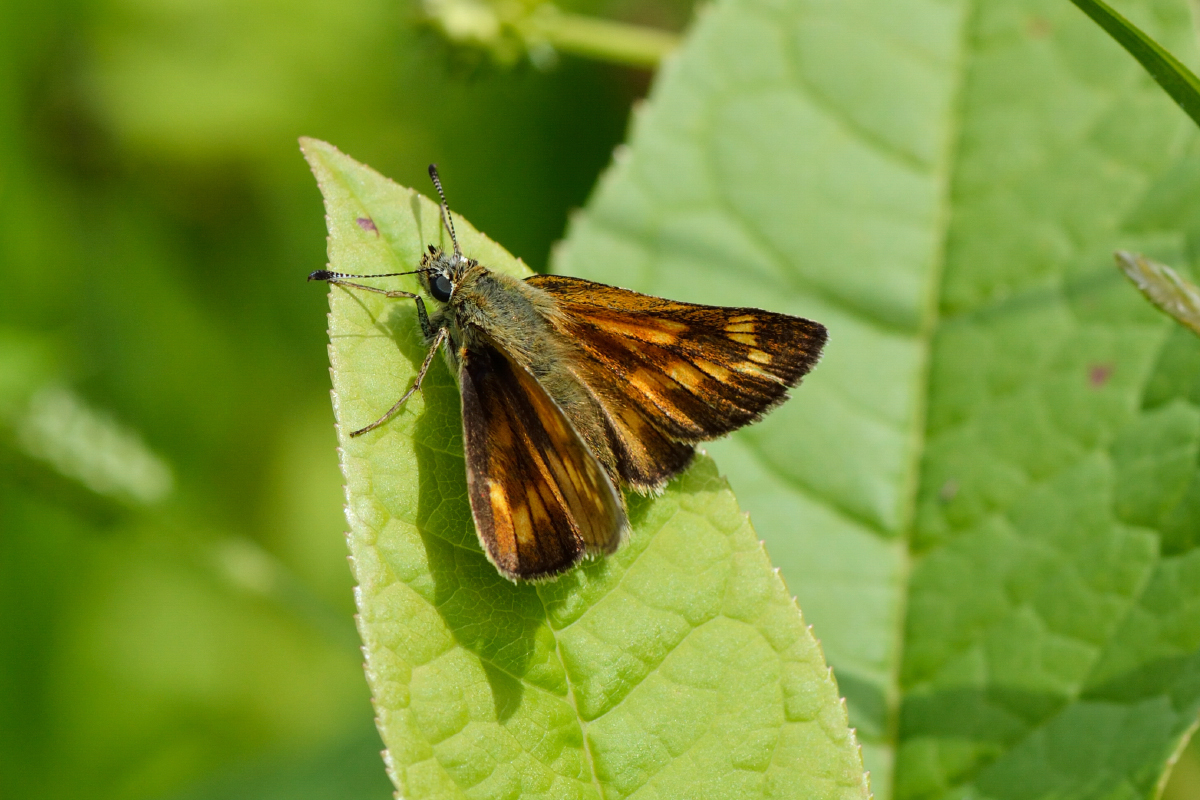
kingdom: Animalia
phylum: Arthropoda
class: Insecta
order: Lepidoptera
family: Hesperiidae
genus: Ochlodes
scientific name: Ochlodes venata
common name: Large skipper
